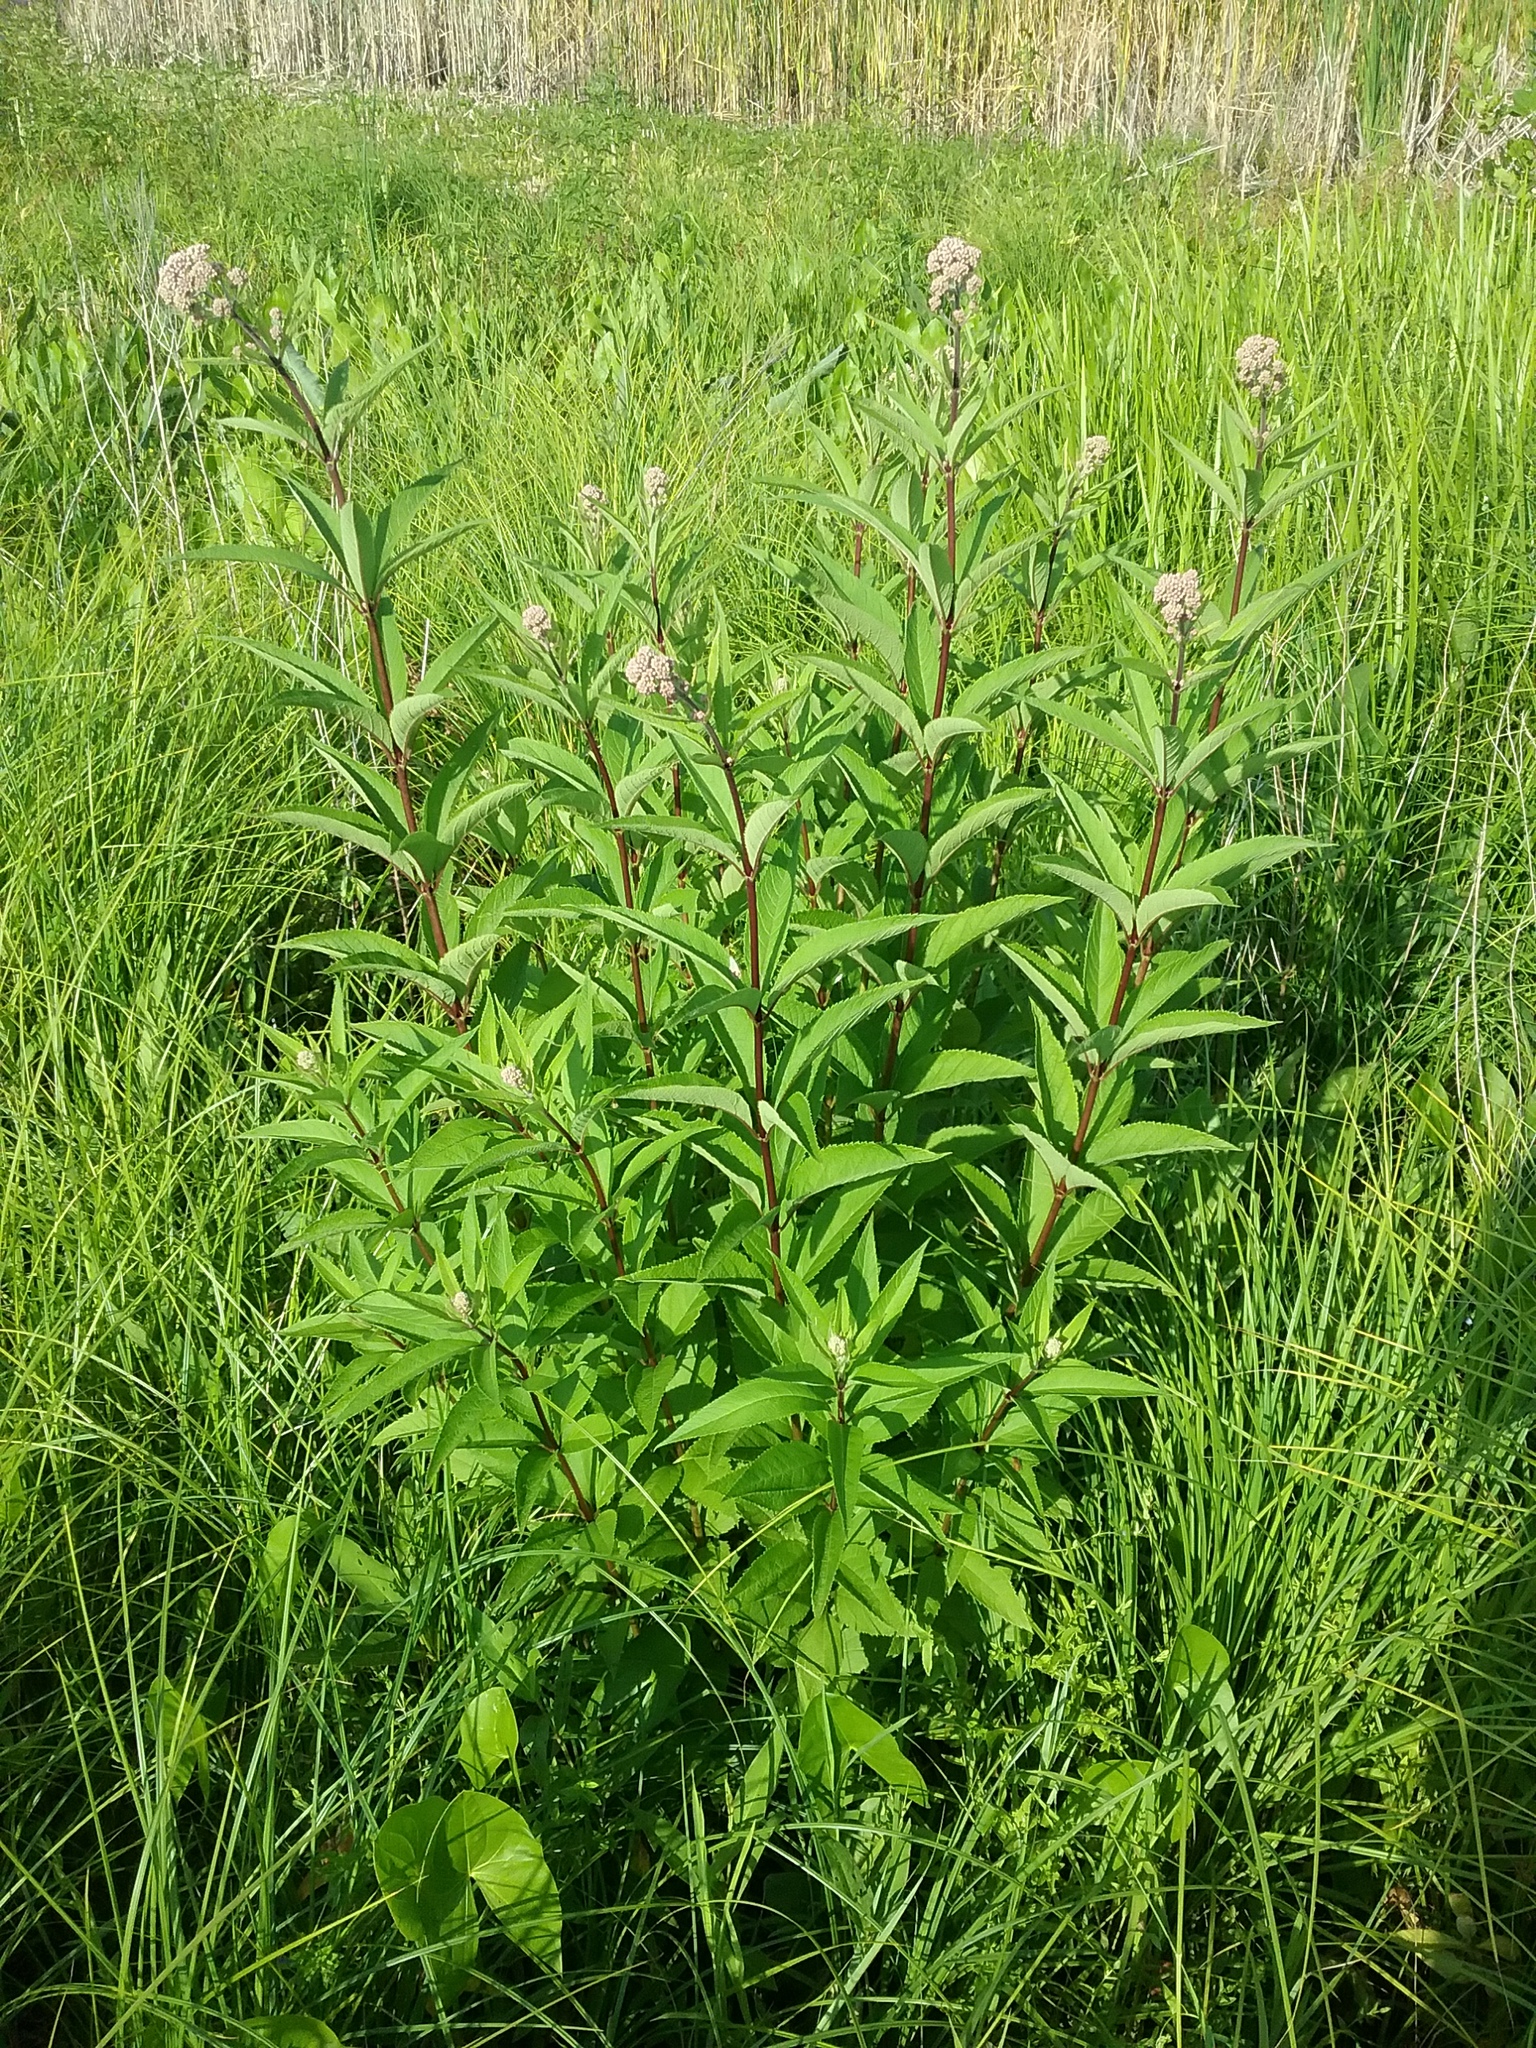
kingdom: Plantae
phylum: Tracheophyta
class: Magnoliopsida
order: Asterales
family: Asteraceae
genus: Eutrochium
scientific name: Eutrochium maculatum
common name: Spotted joe pye weed
